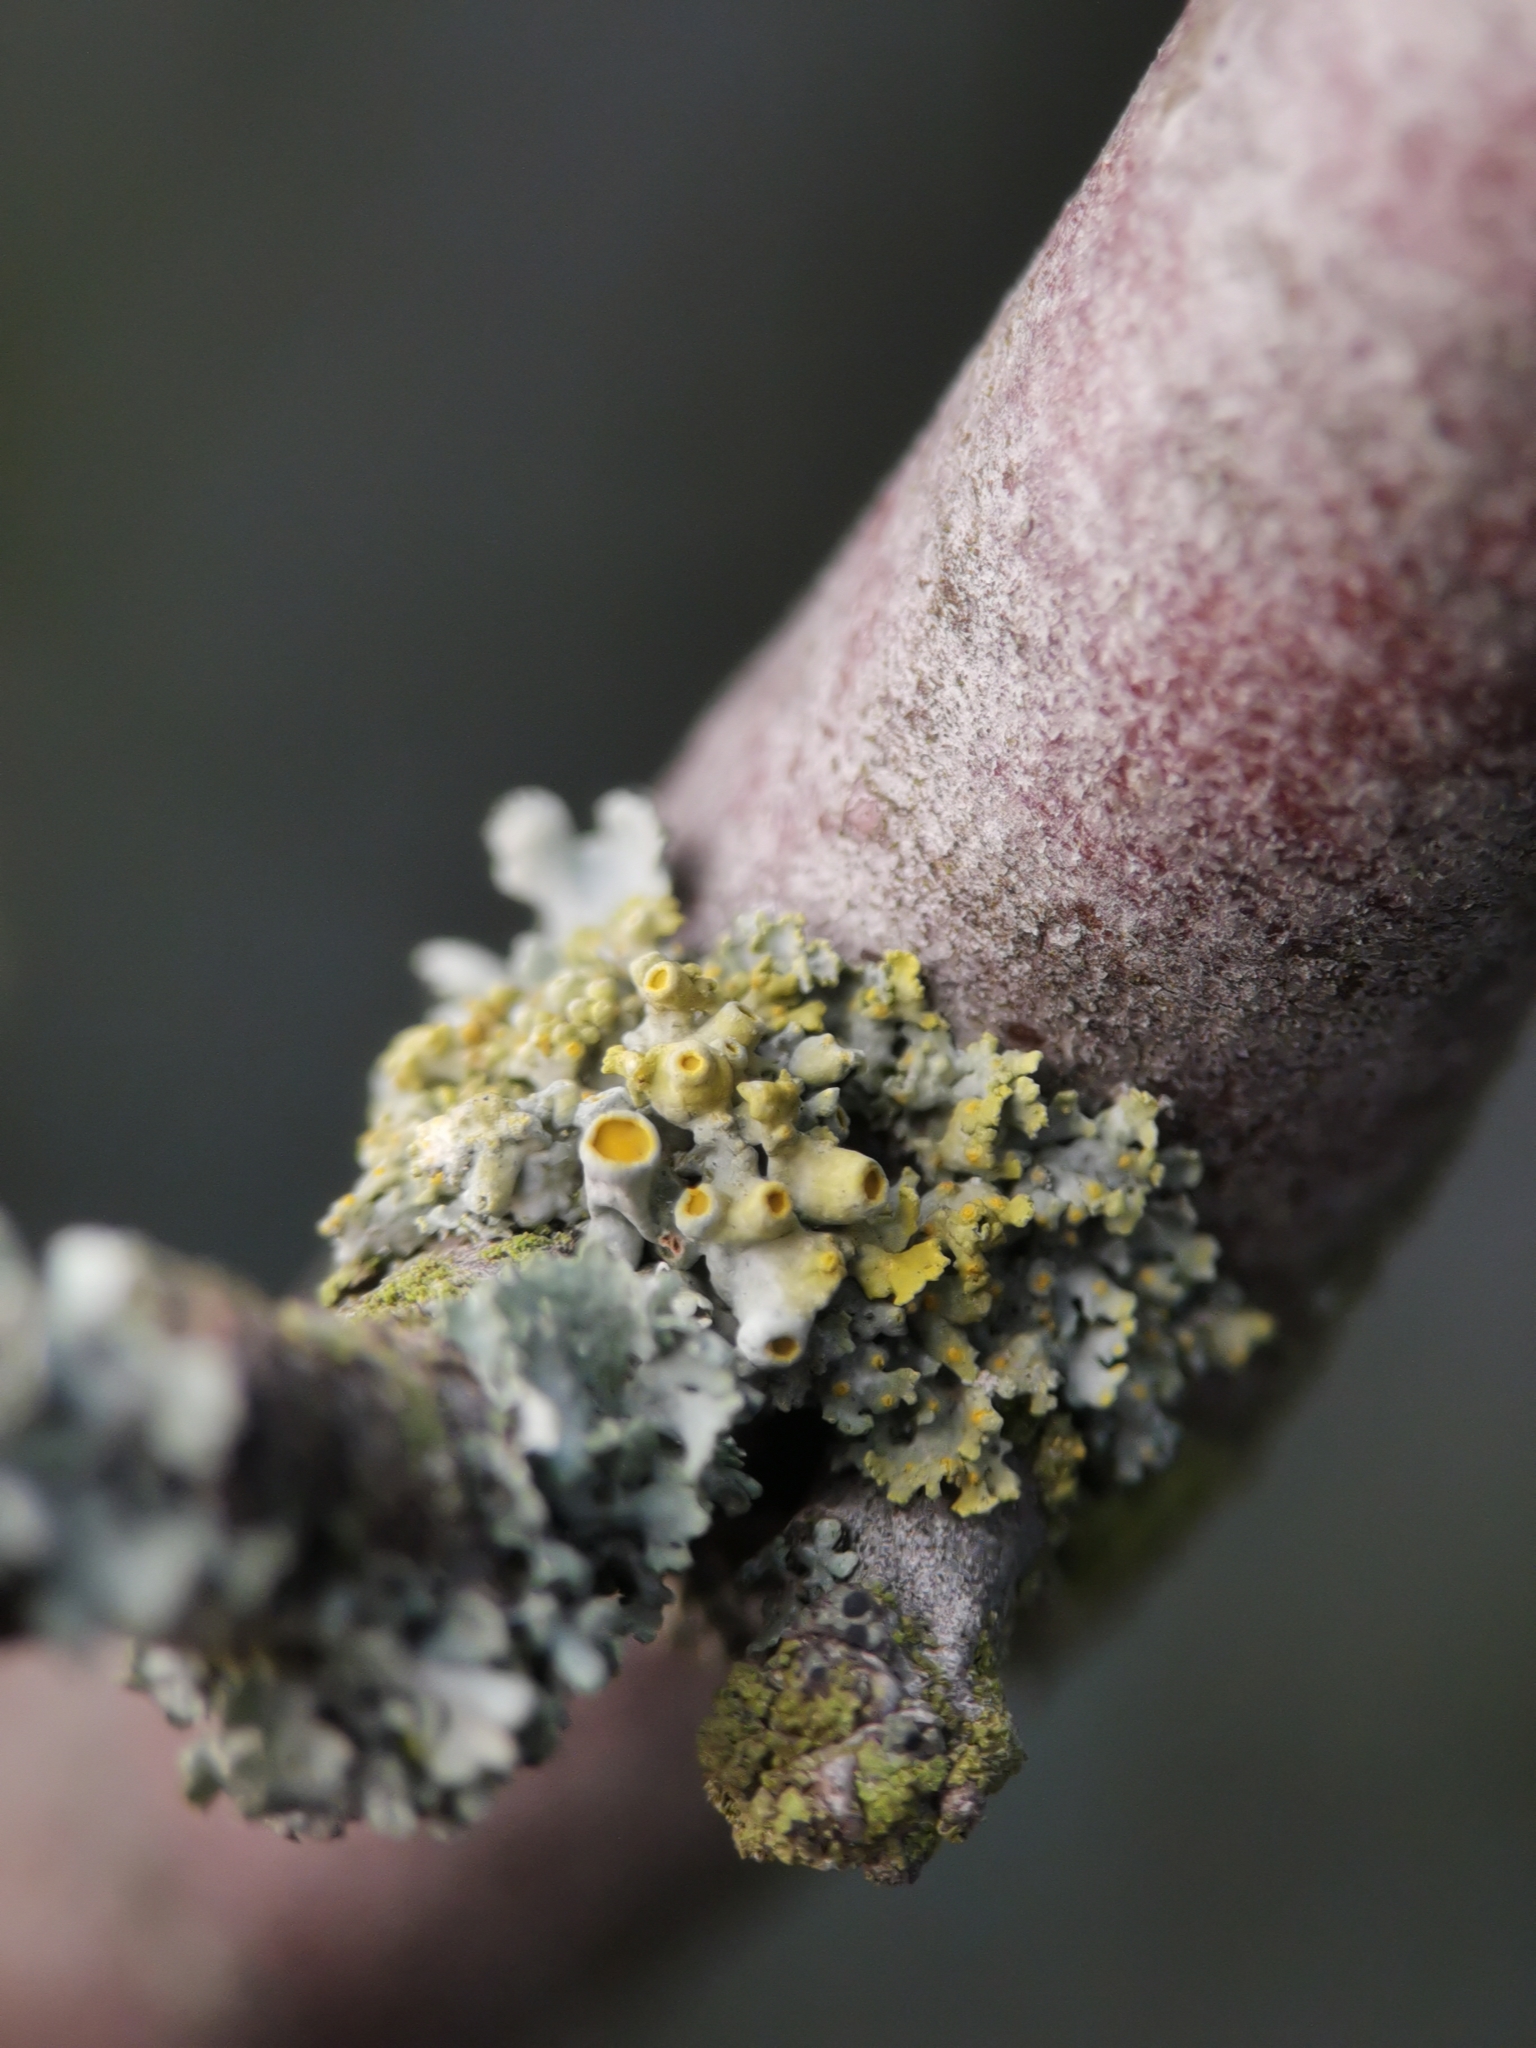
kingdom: Fungi
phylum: Ascomycota
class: Lecanoromycetes
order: Teloschistales
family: Teloschistaceae
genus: Polycauliona
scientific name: Polycauliona polycarpa
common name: Pin-cushion sunburst lichen
